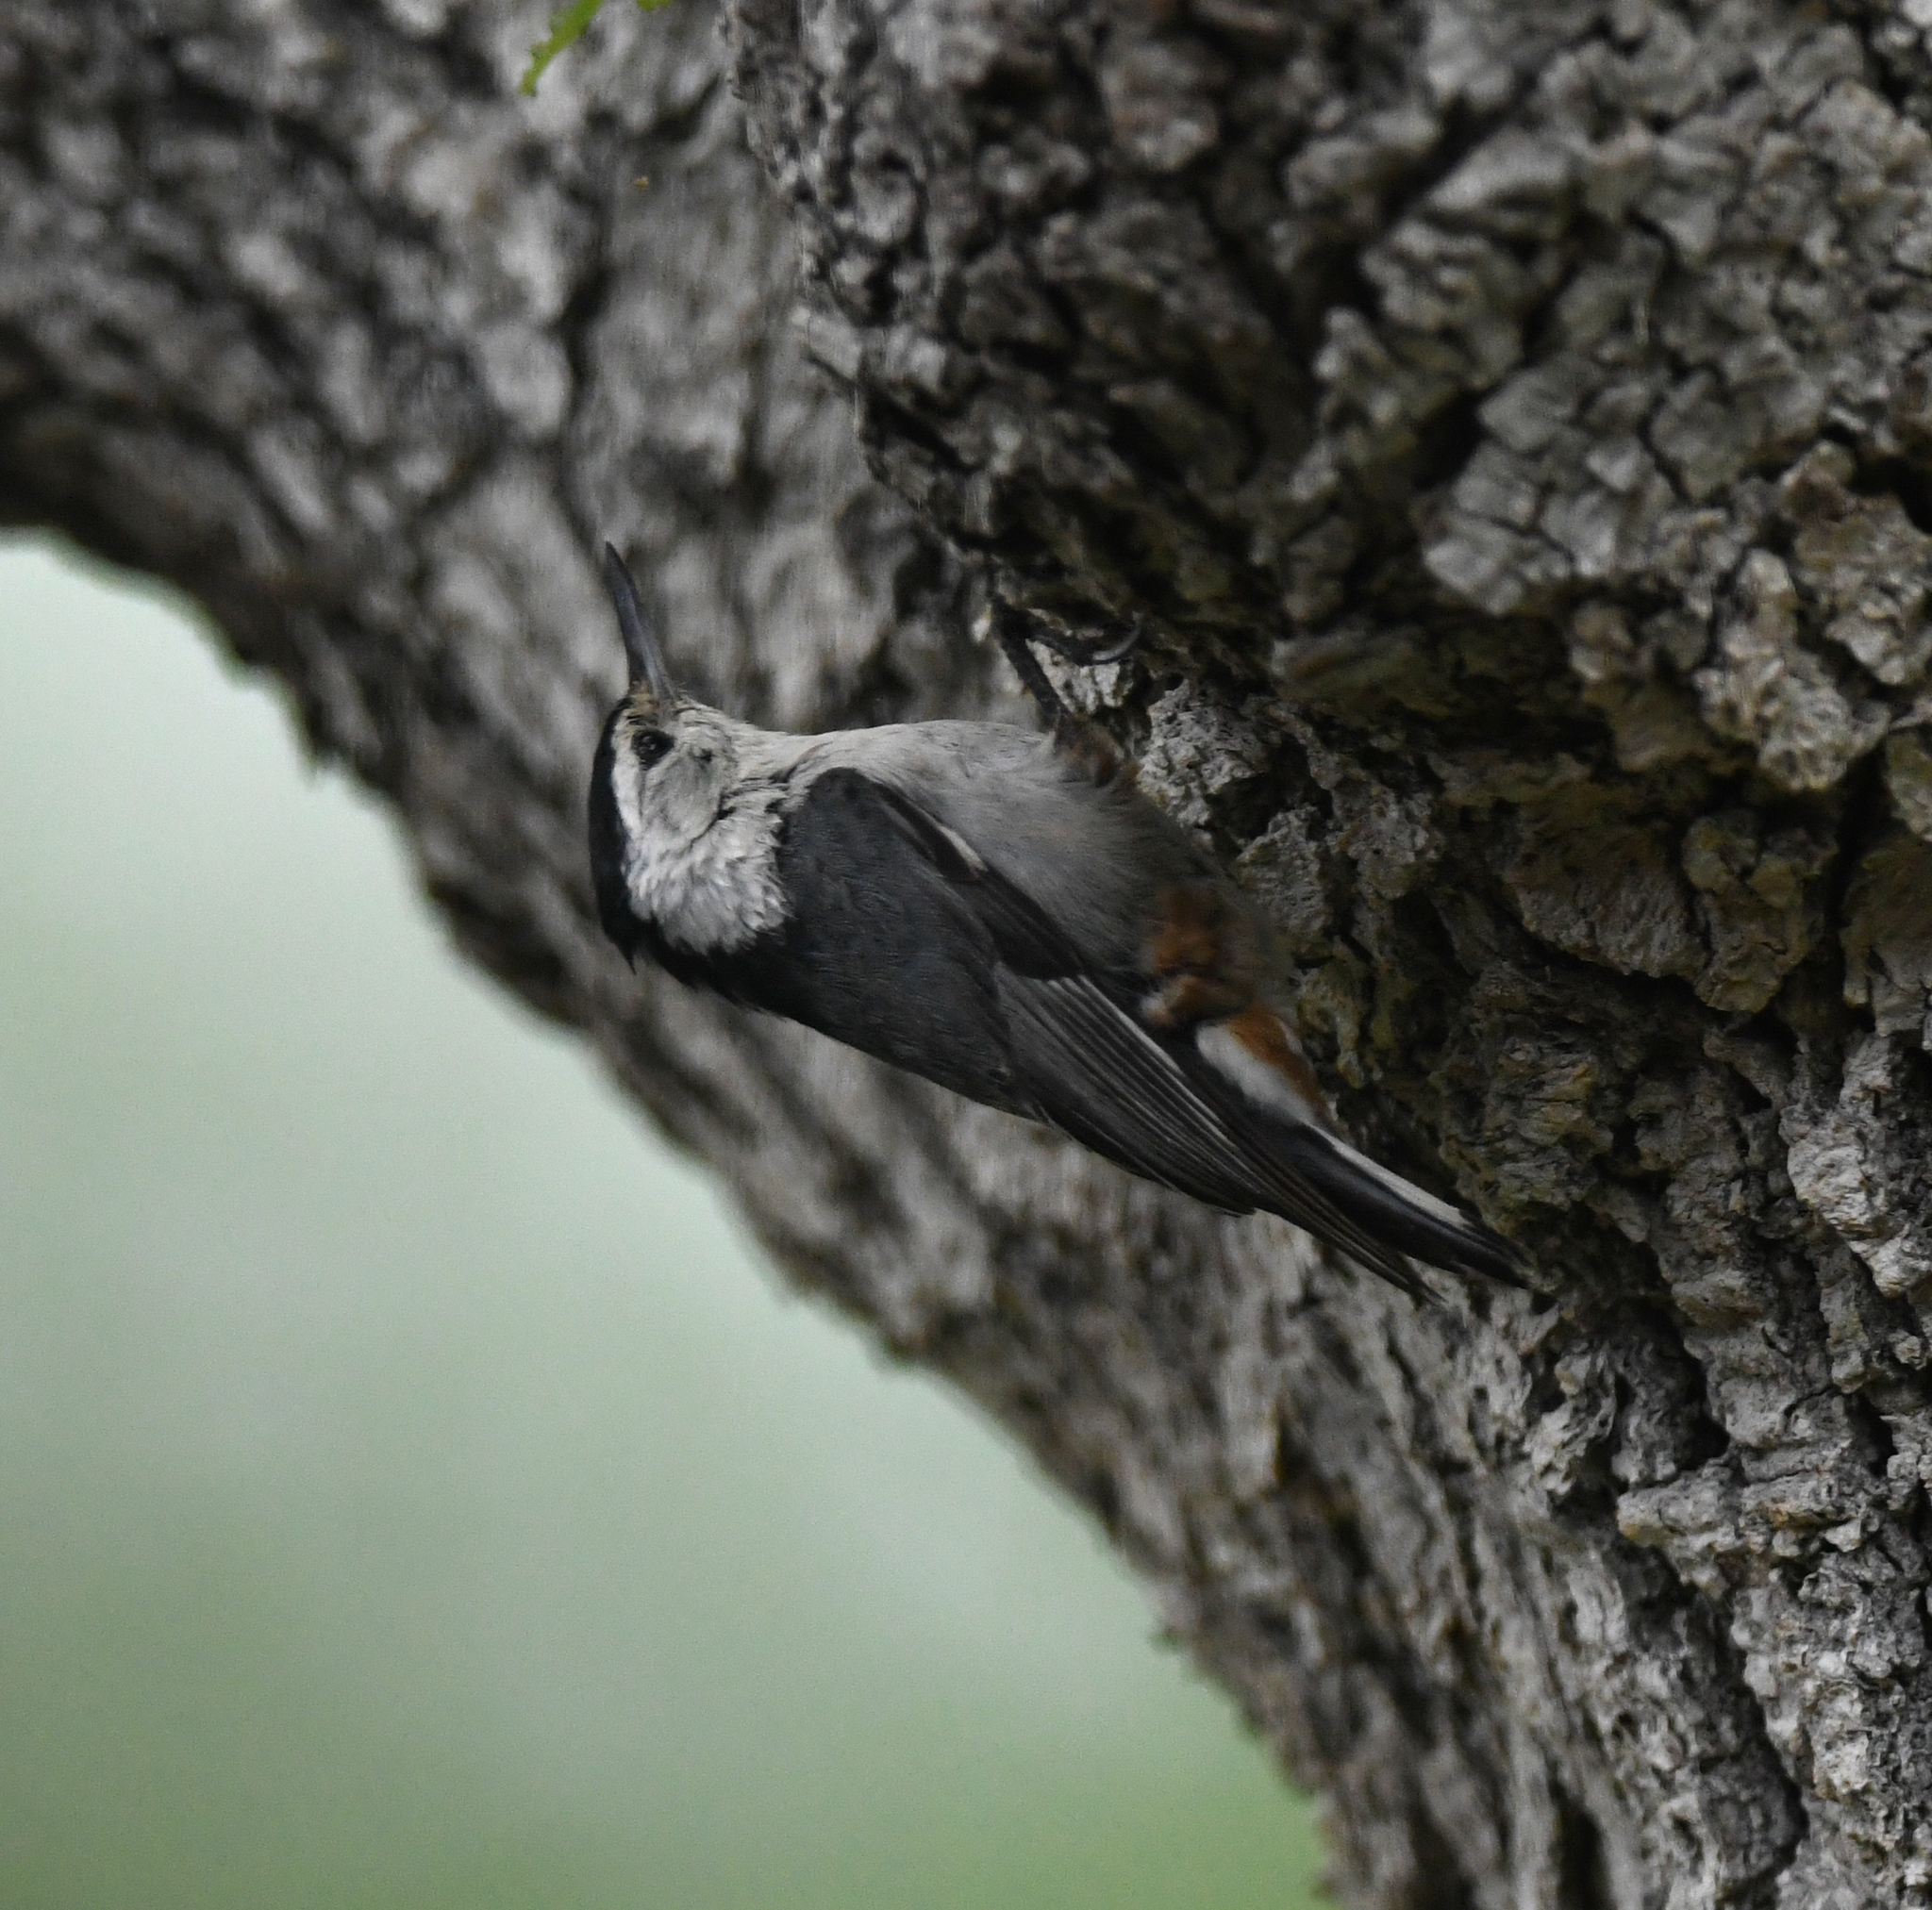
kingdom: Animalia
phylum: Chordata
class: Aves
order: Passeriformes
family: Sittidae
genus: Sitta
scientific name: Sitta carolinensis
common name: White-breasted nuthatch
